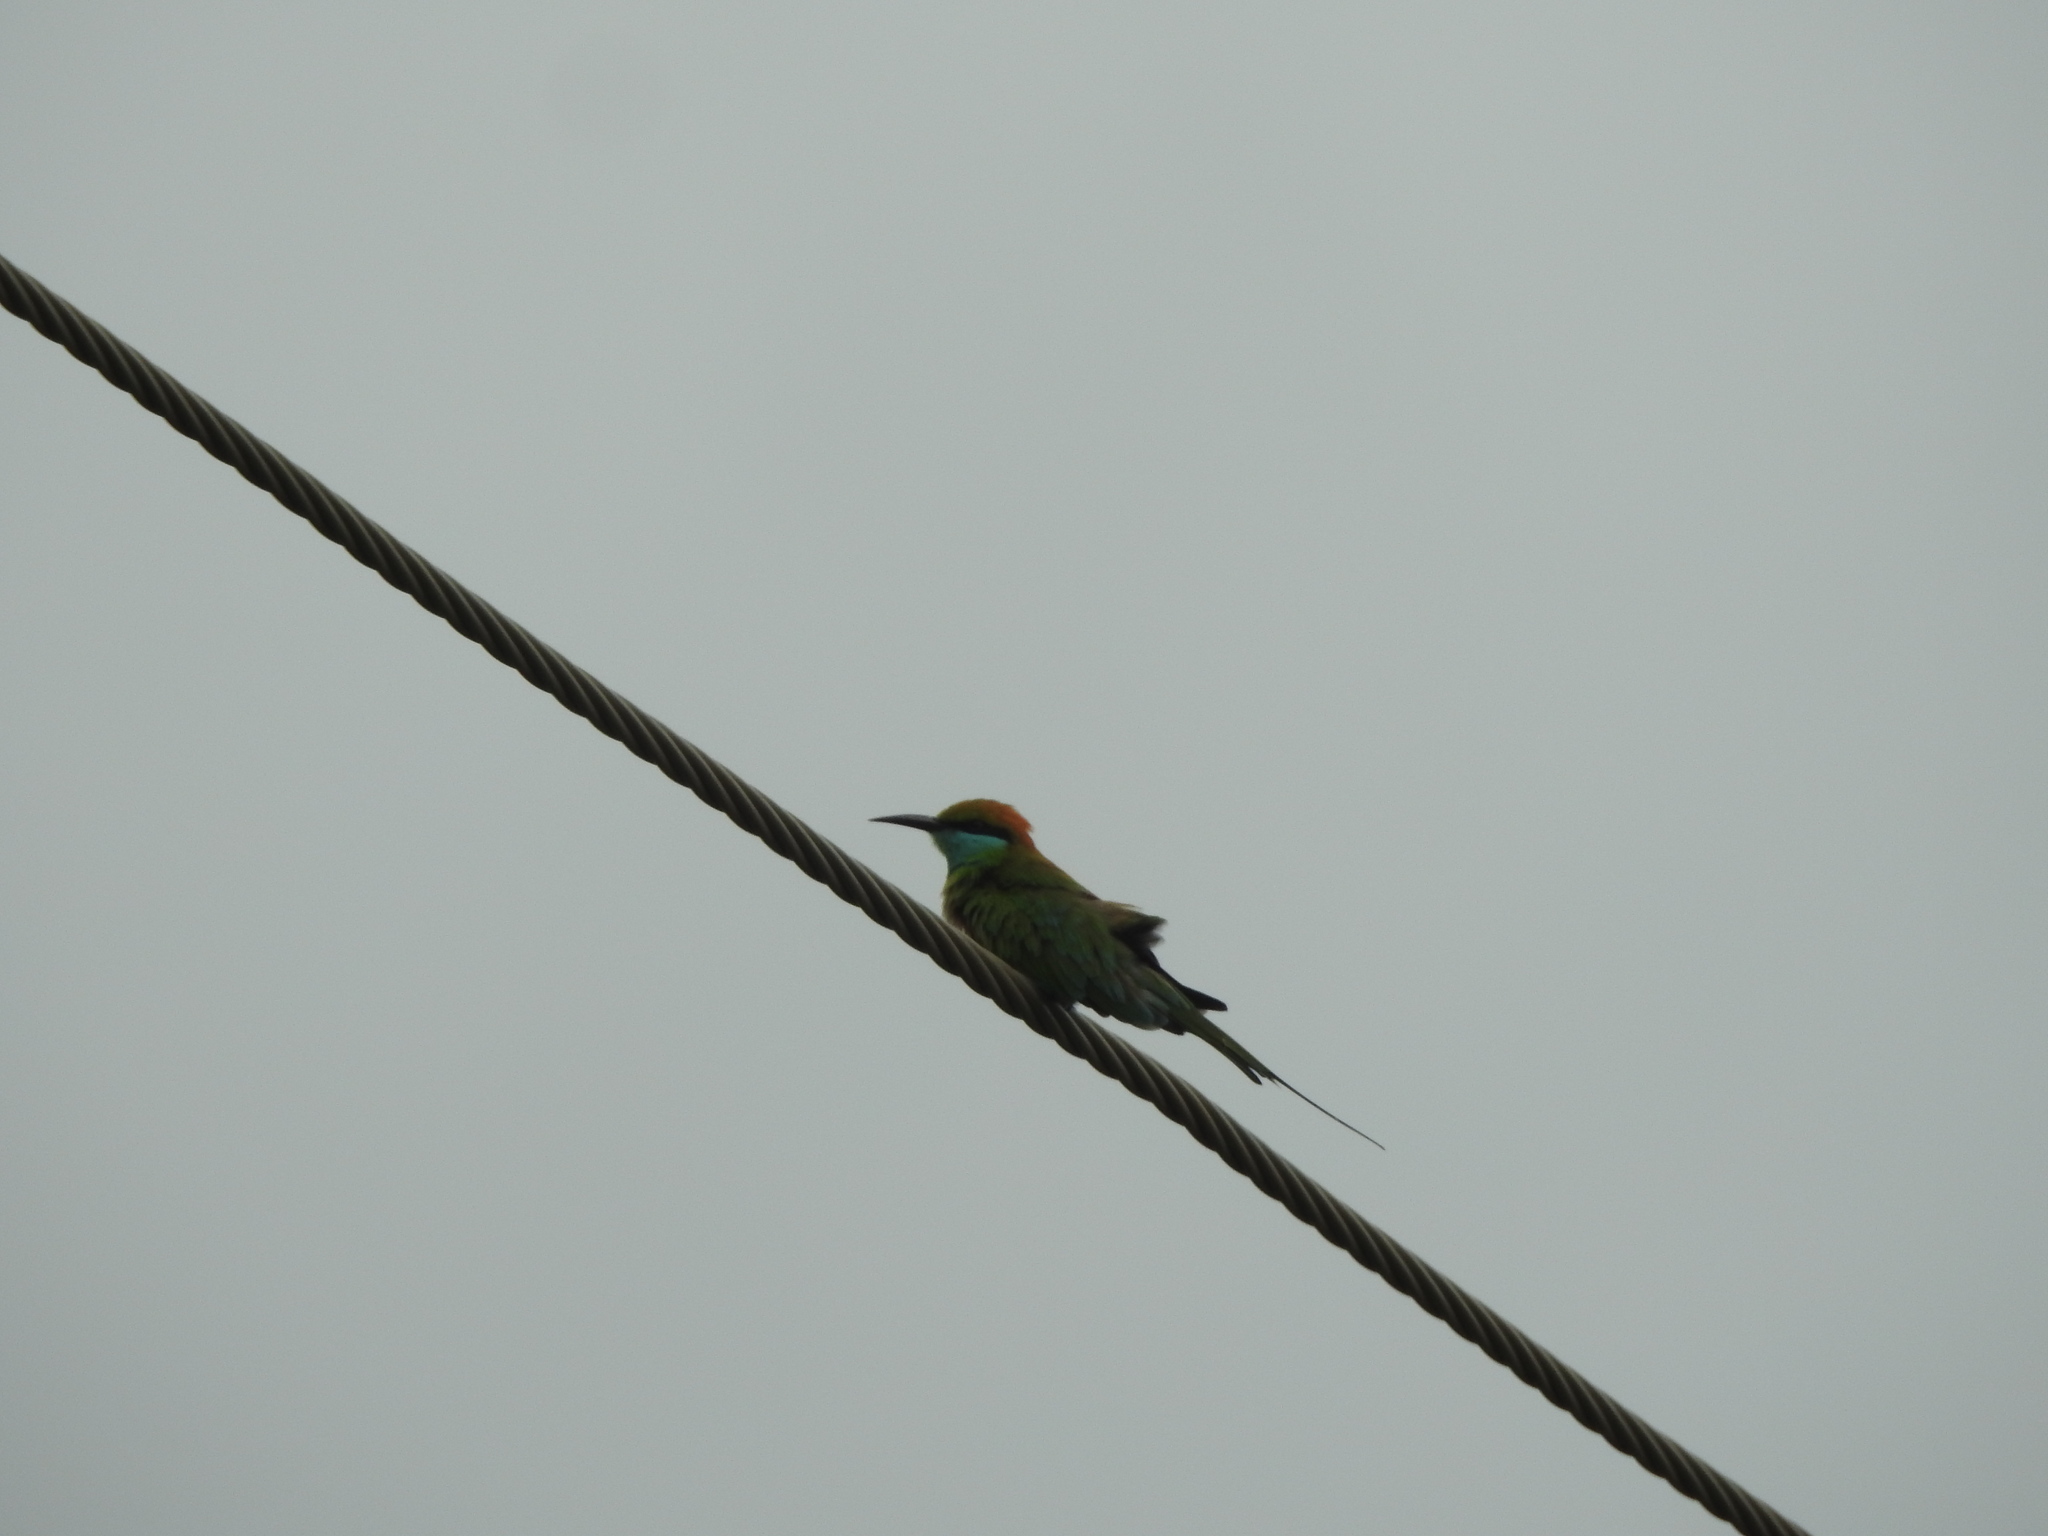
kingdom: Animalia
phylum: Chordata
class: Aves
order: Coraciiformes
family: Meropidae
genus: Merops
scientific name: Merops orientalis
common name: Green bee-eater
